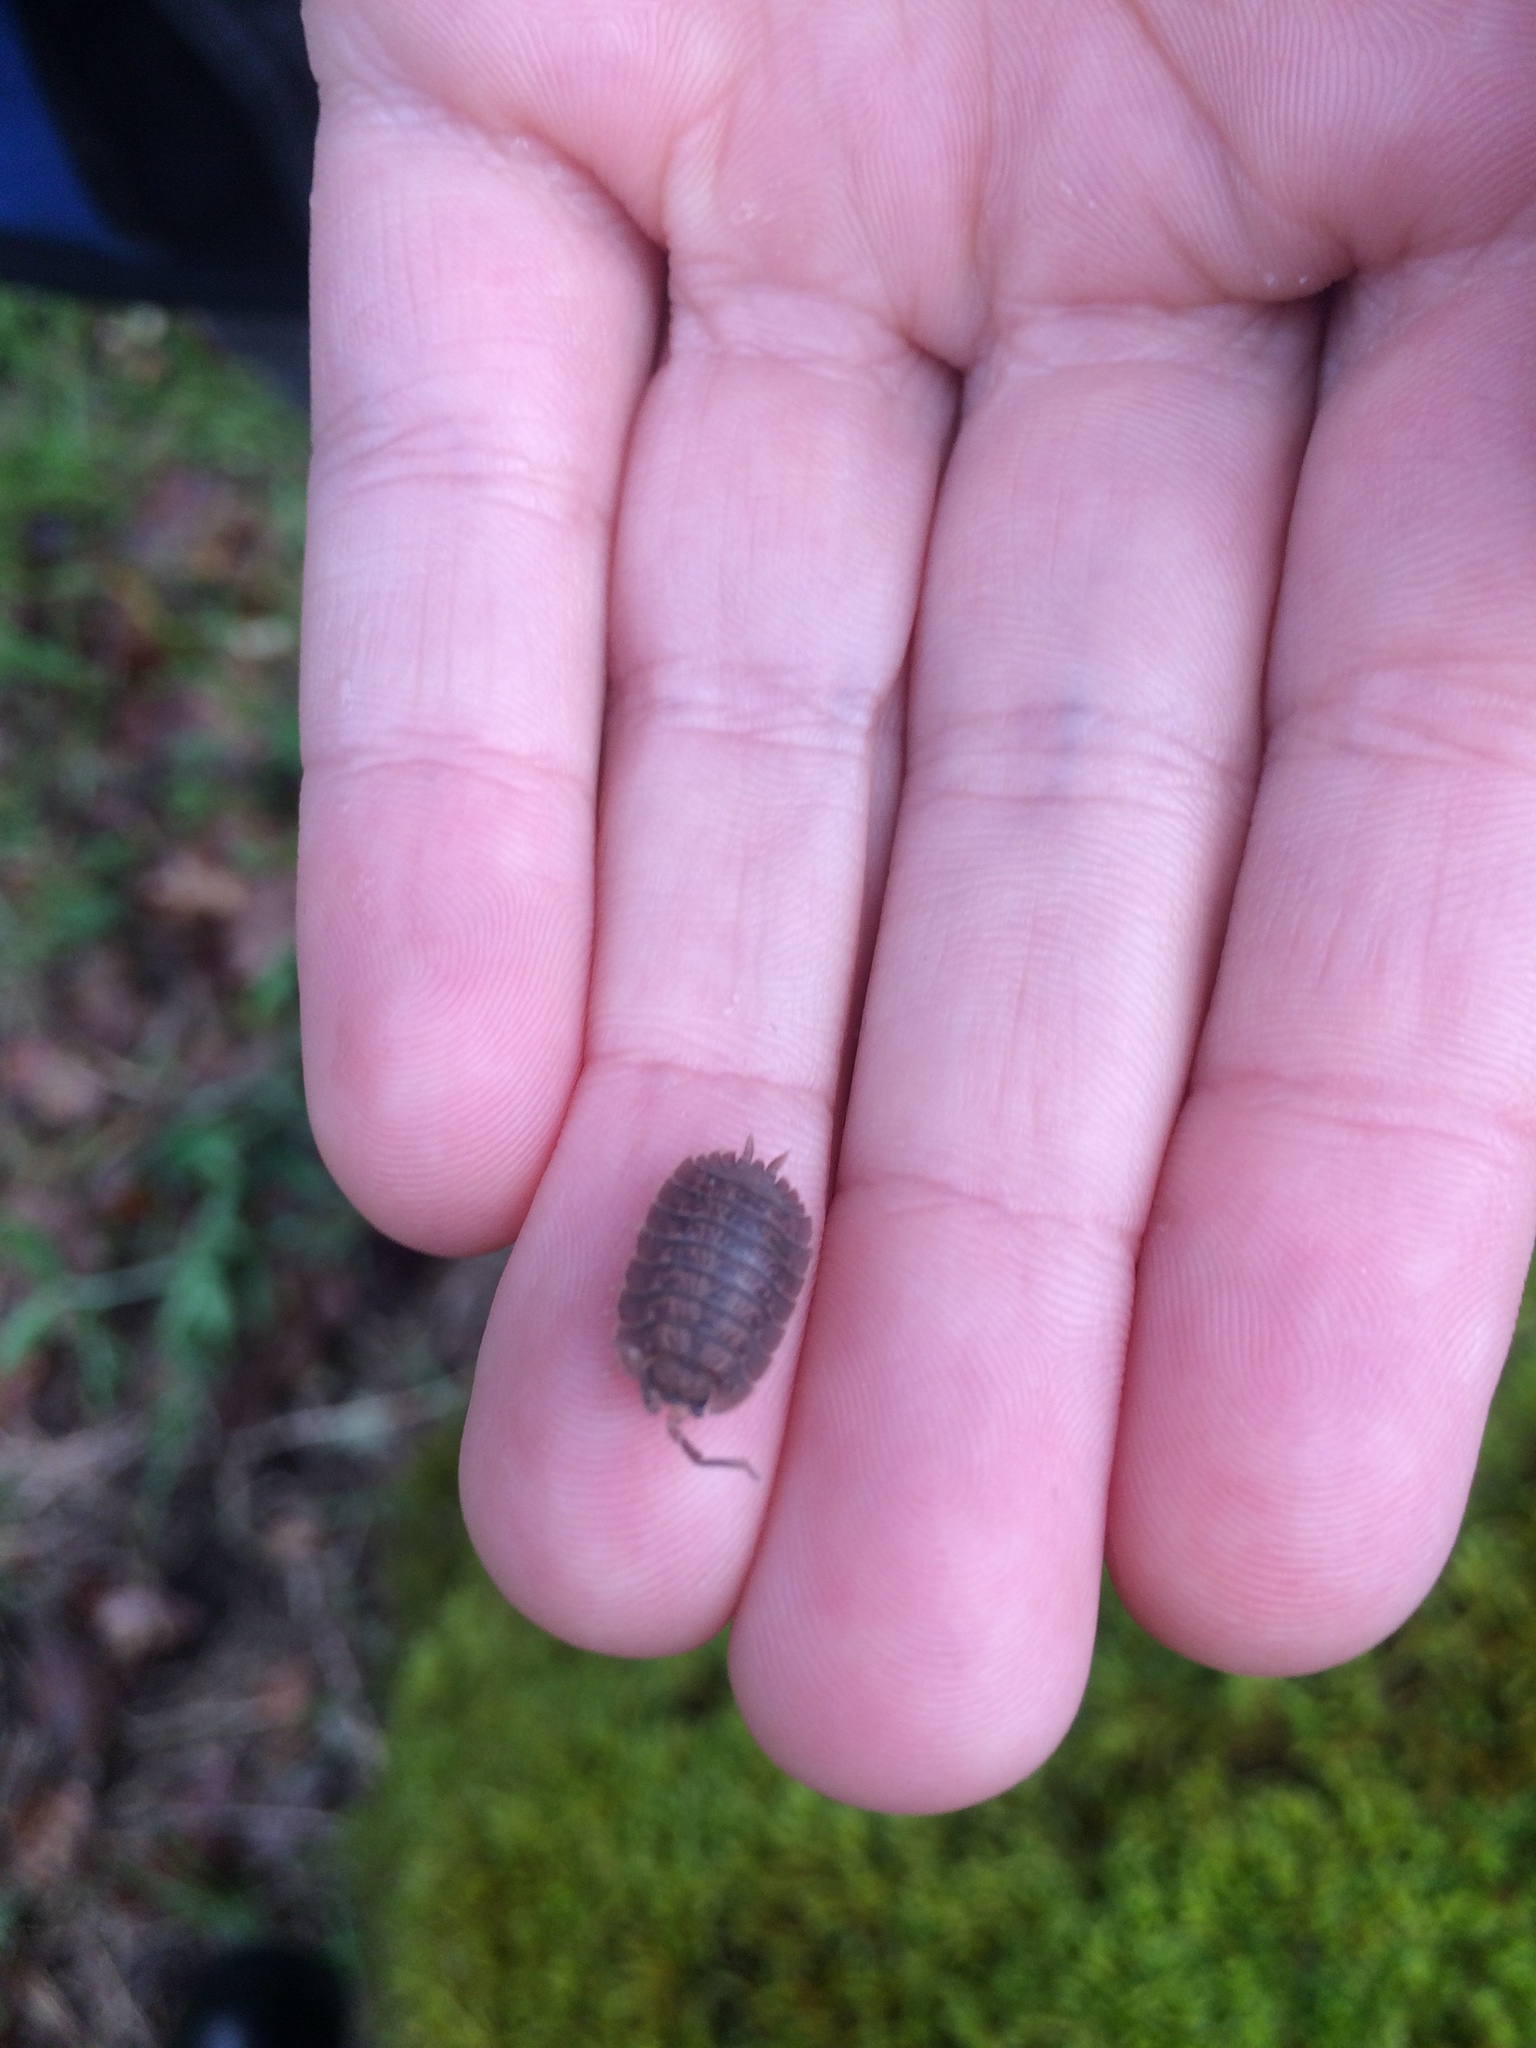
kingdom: Animalia
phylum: Arthropoda
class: Malacostraca
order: Isopoda
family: Porcellionidae
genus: Porcellio
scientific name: Porcellio dilatatus
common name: Isopod
